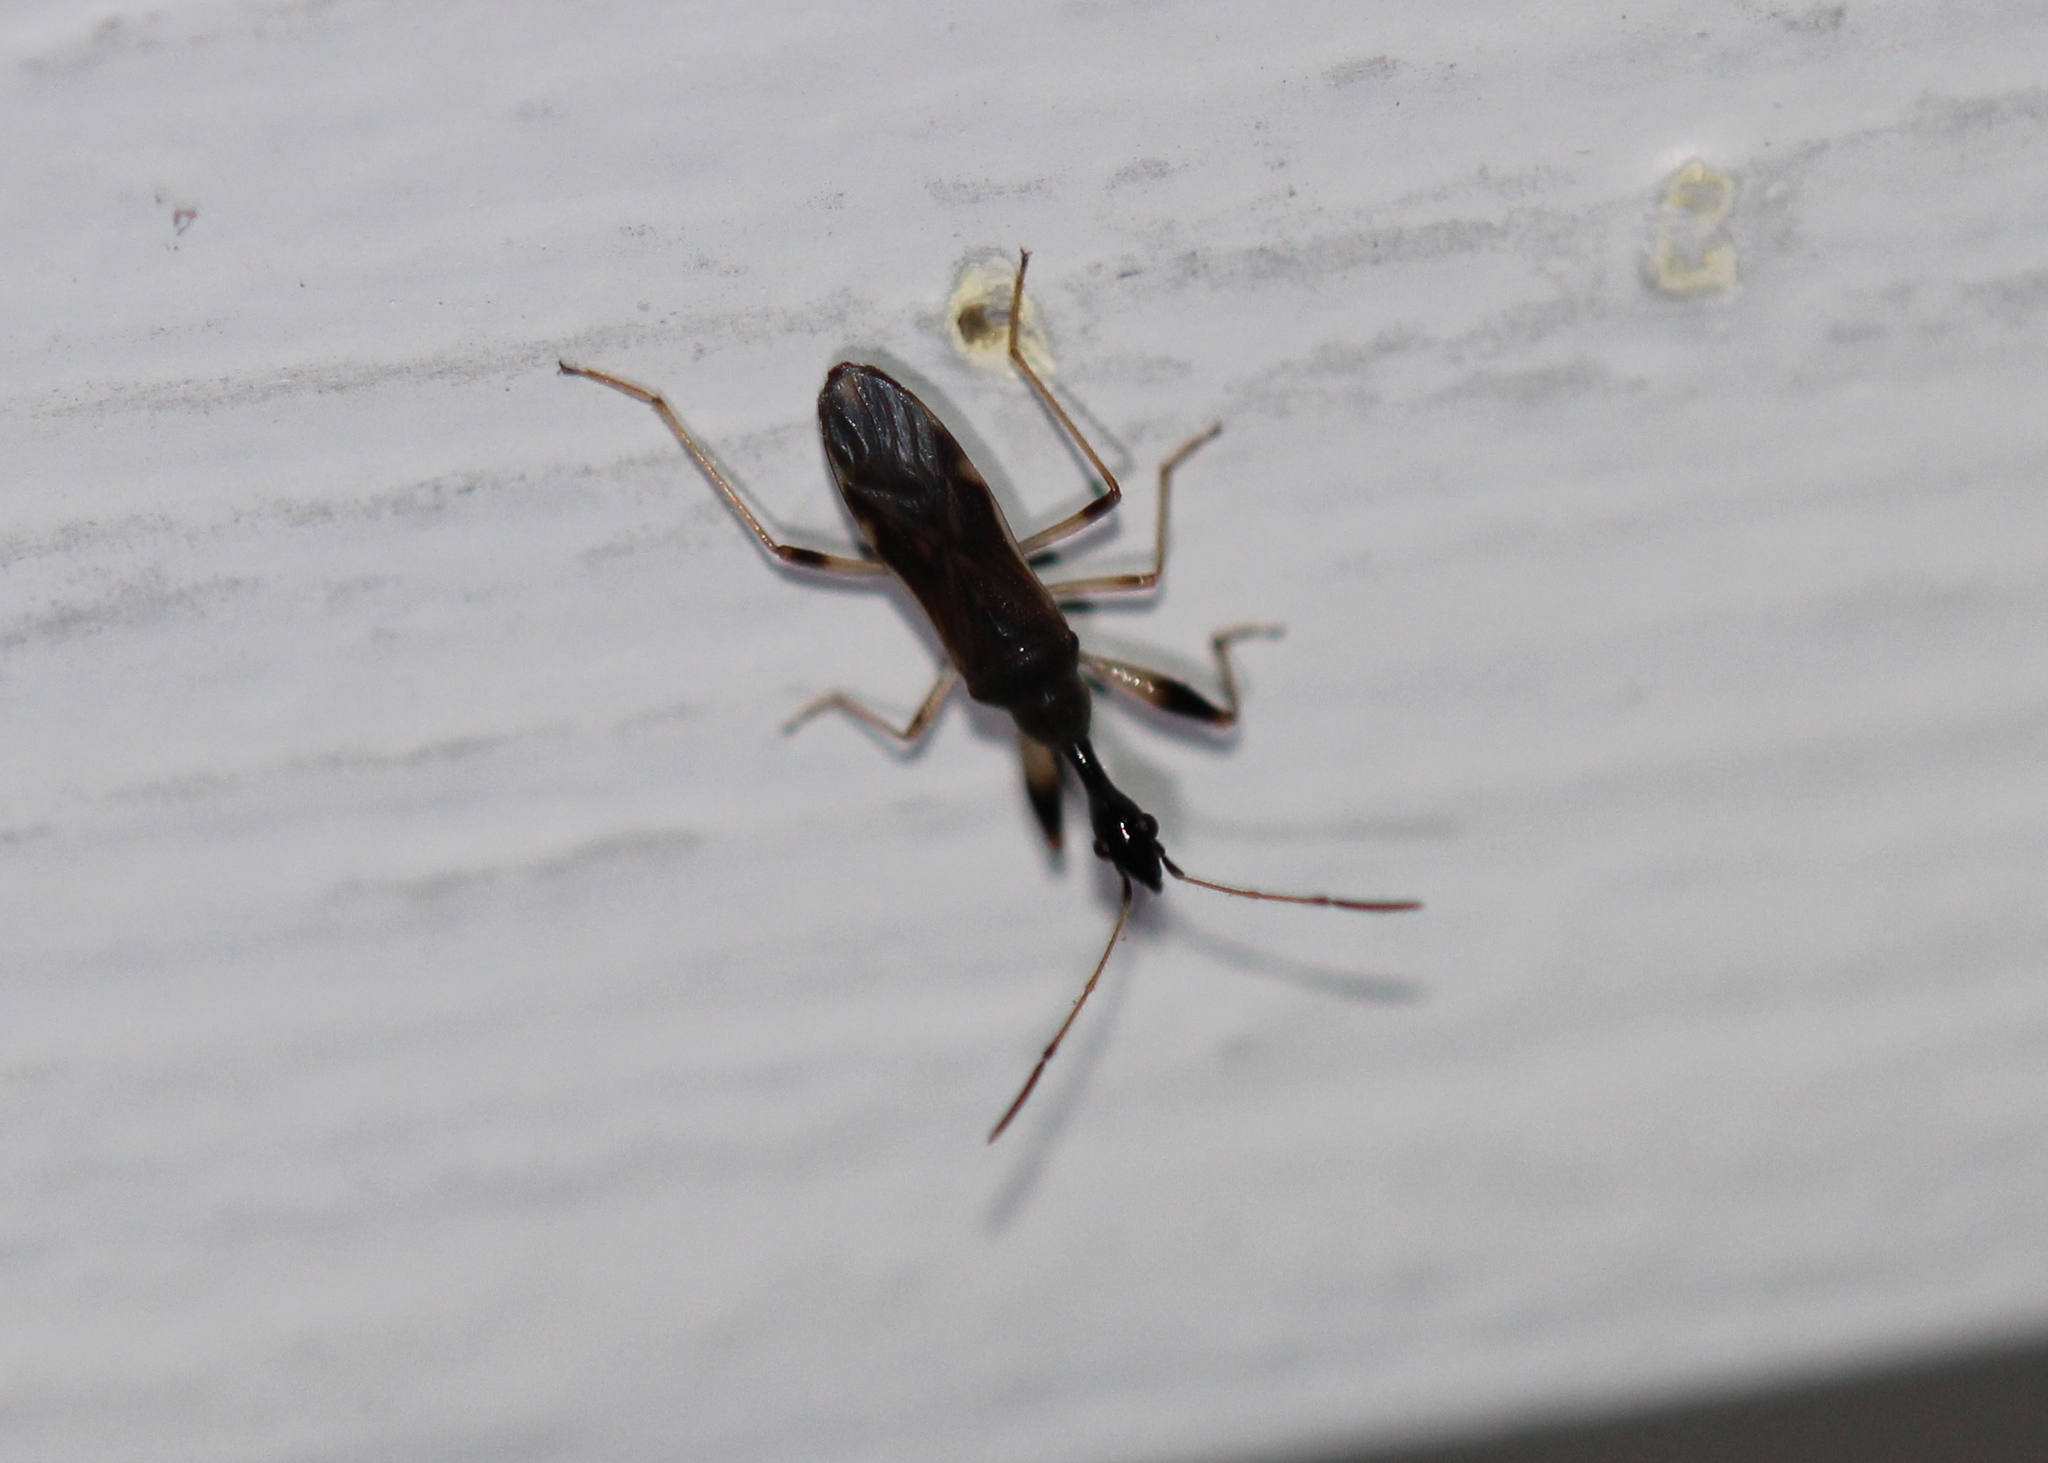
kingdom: Animalia
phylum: Arthropoda
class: Insecta
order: Hemiptera
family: Rhyparochromidae
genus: Myodocha
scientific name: Myodocha serripes
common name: Long-necked seed bug
